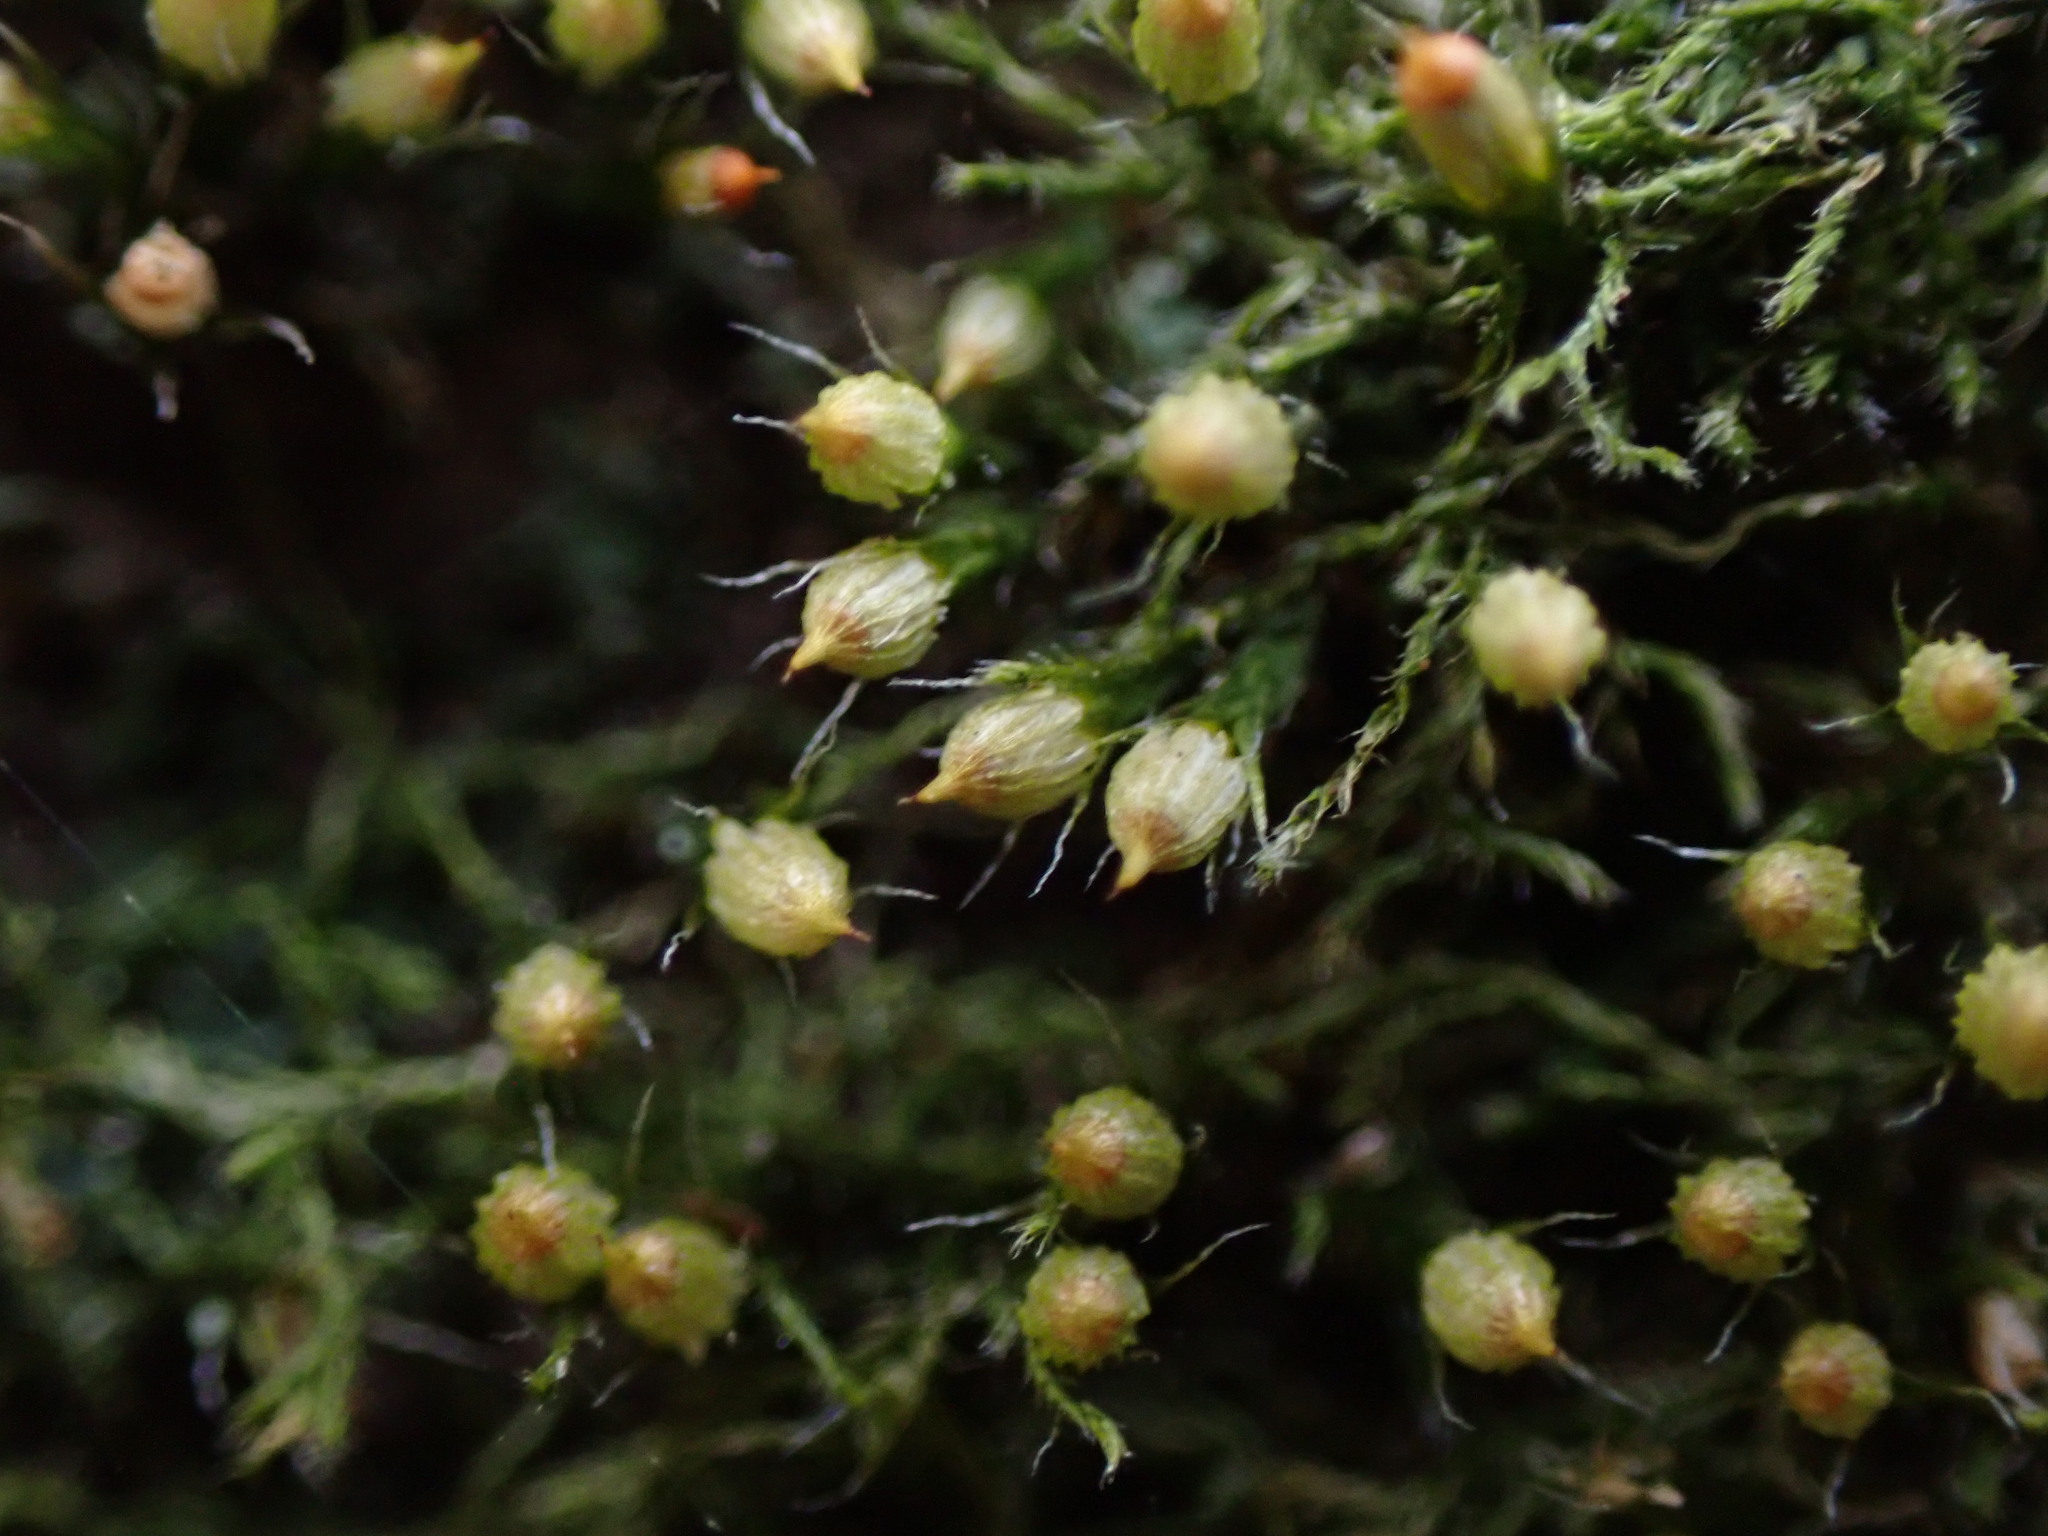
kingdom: Plantae
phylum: Bryophyta
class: Bryopsida
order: Dicranales
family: Erpodiaceae
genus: Venturiella
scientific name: Venturiella sinensis
